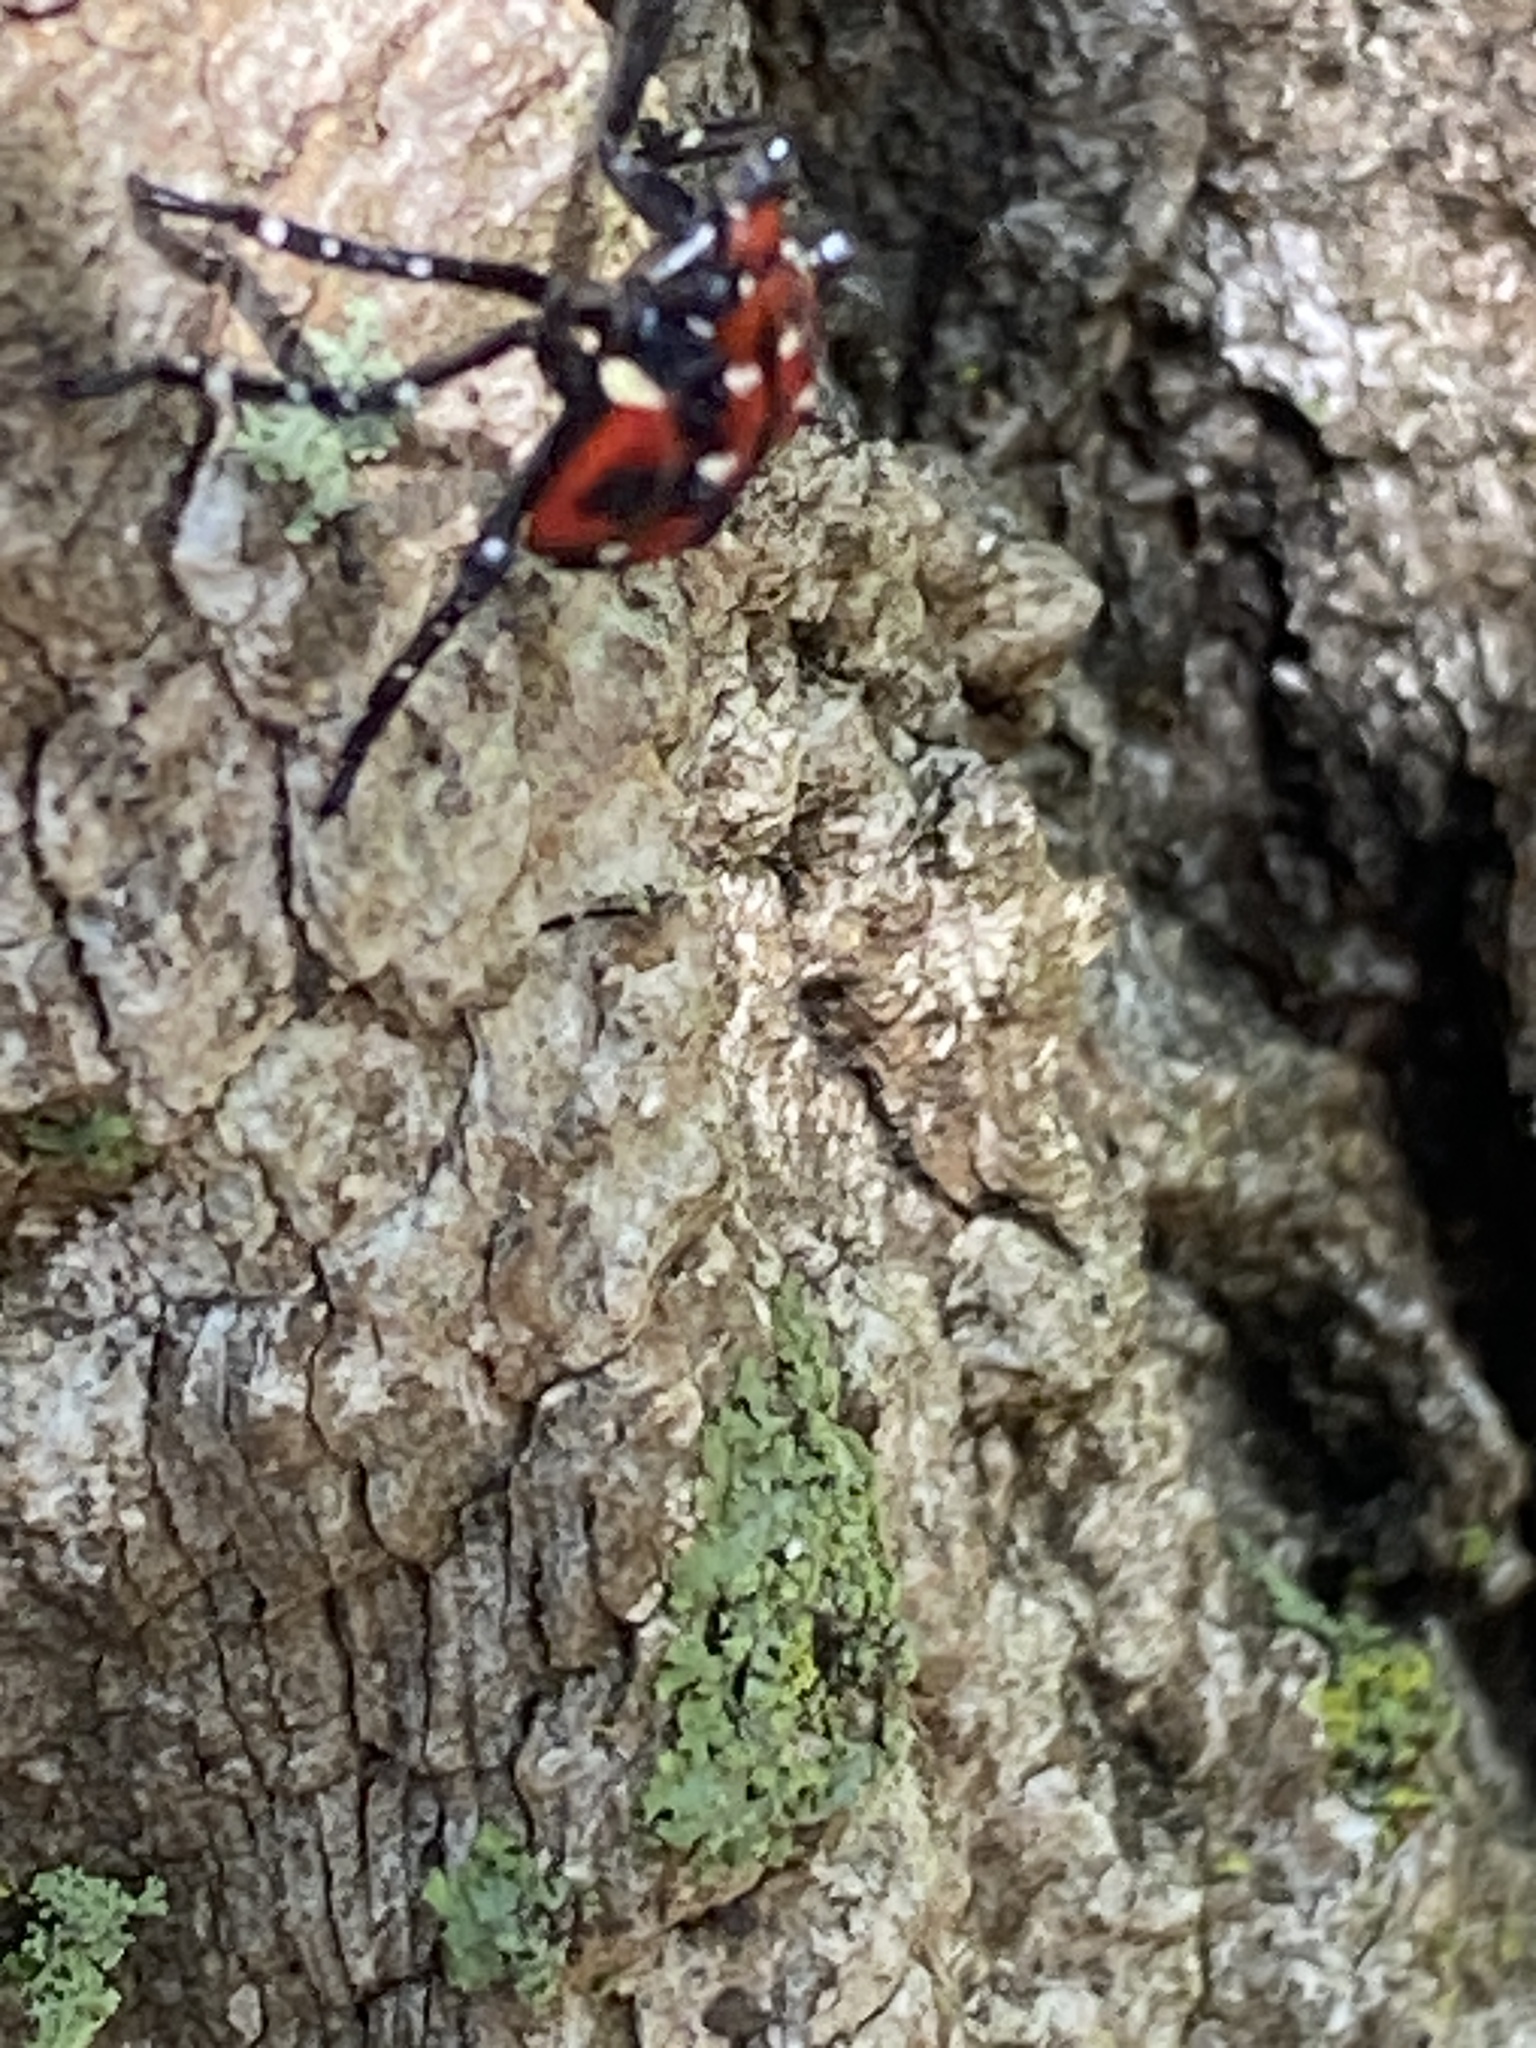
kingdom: Animalia
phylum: Arthropoda
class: Insecta
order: Hemiptera
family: Fulgoridae
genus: Lycorma
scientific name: Lycorma delicatula
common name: Spotted lanternfly
